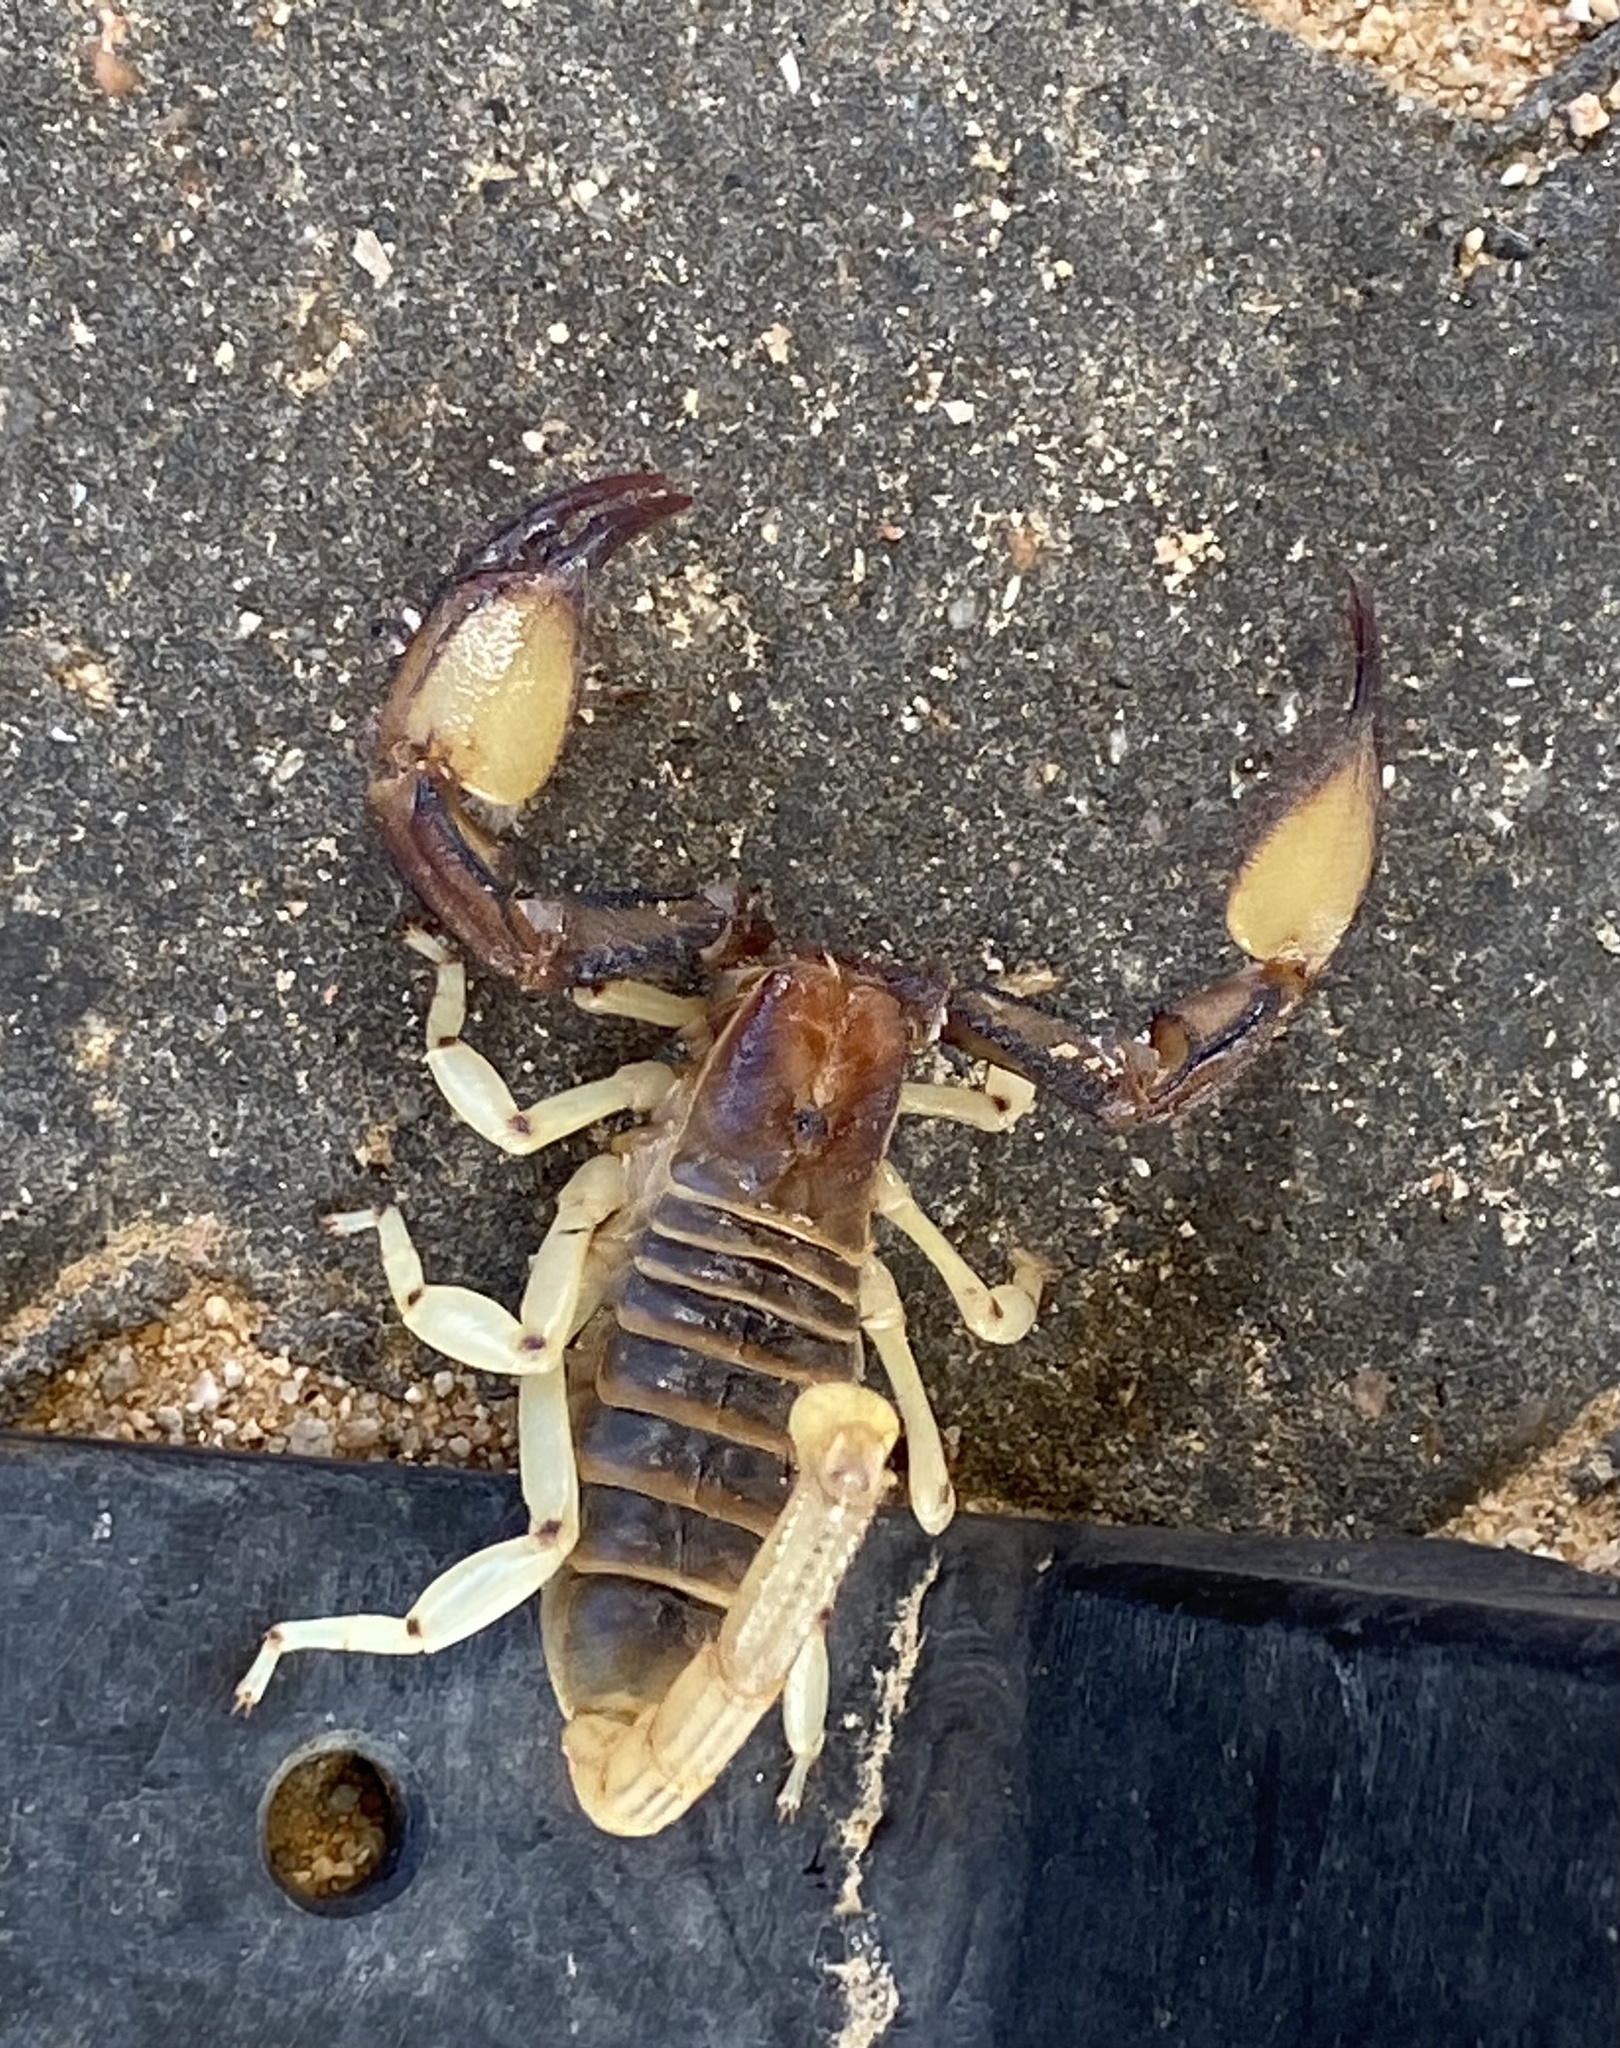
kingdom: Animalia
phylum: Arthropoda
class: Arachnida
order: Scorpiones
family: Scorpionidae
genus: Opistophthalmus
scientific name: Opistophthalmus carinatus
